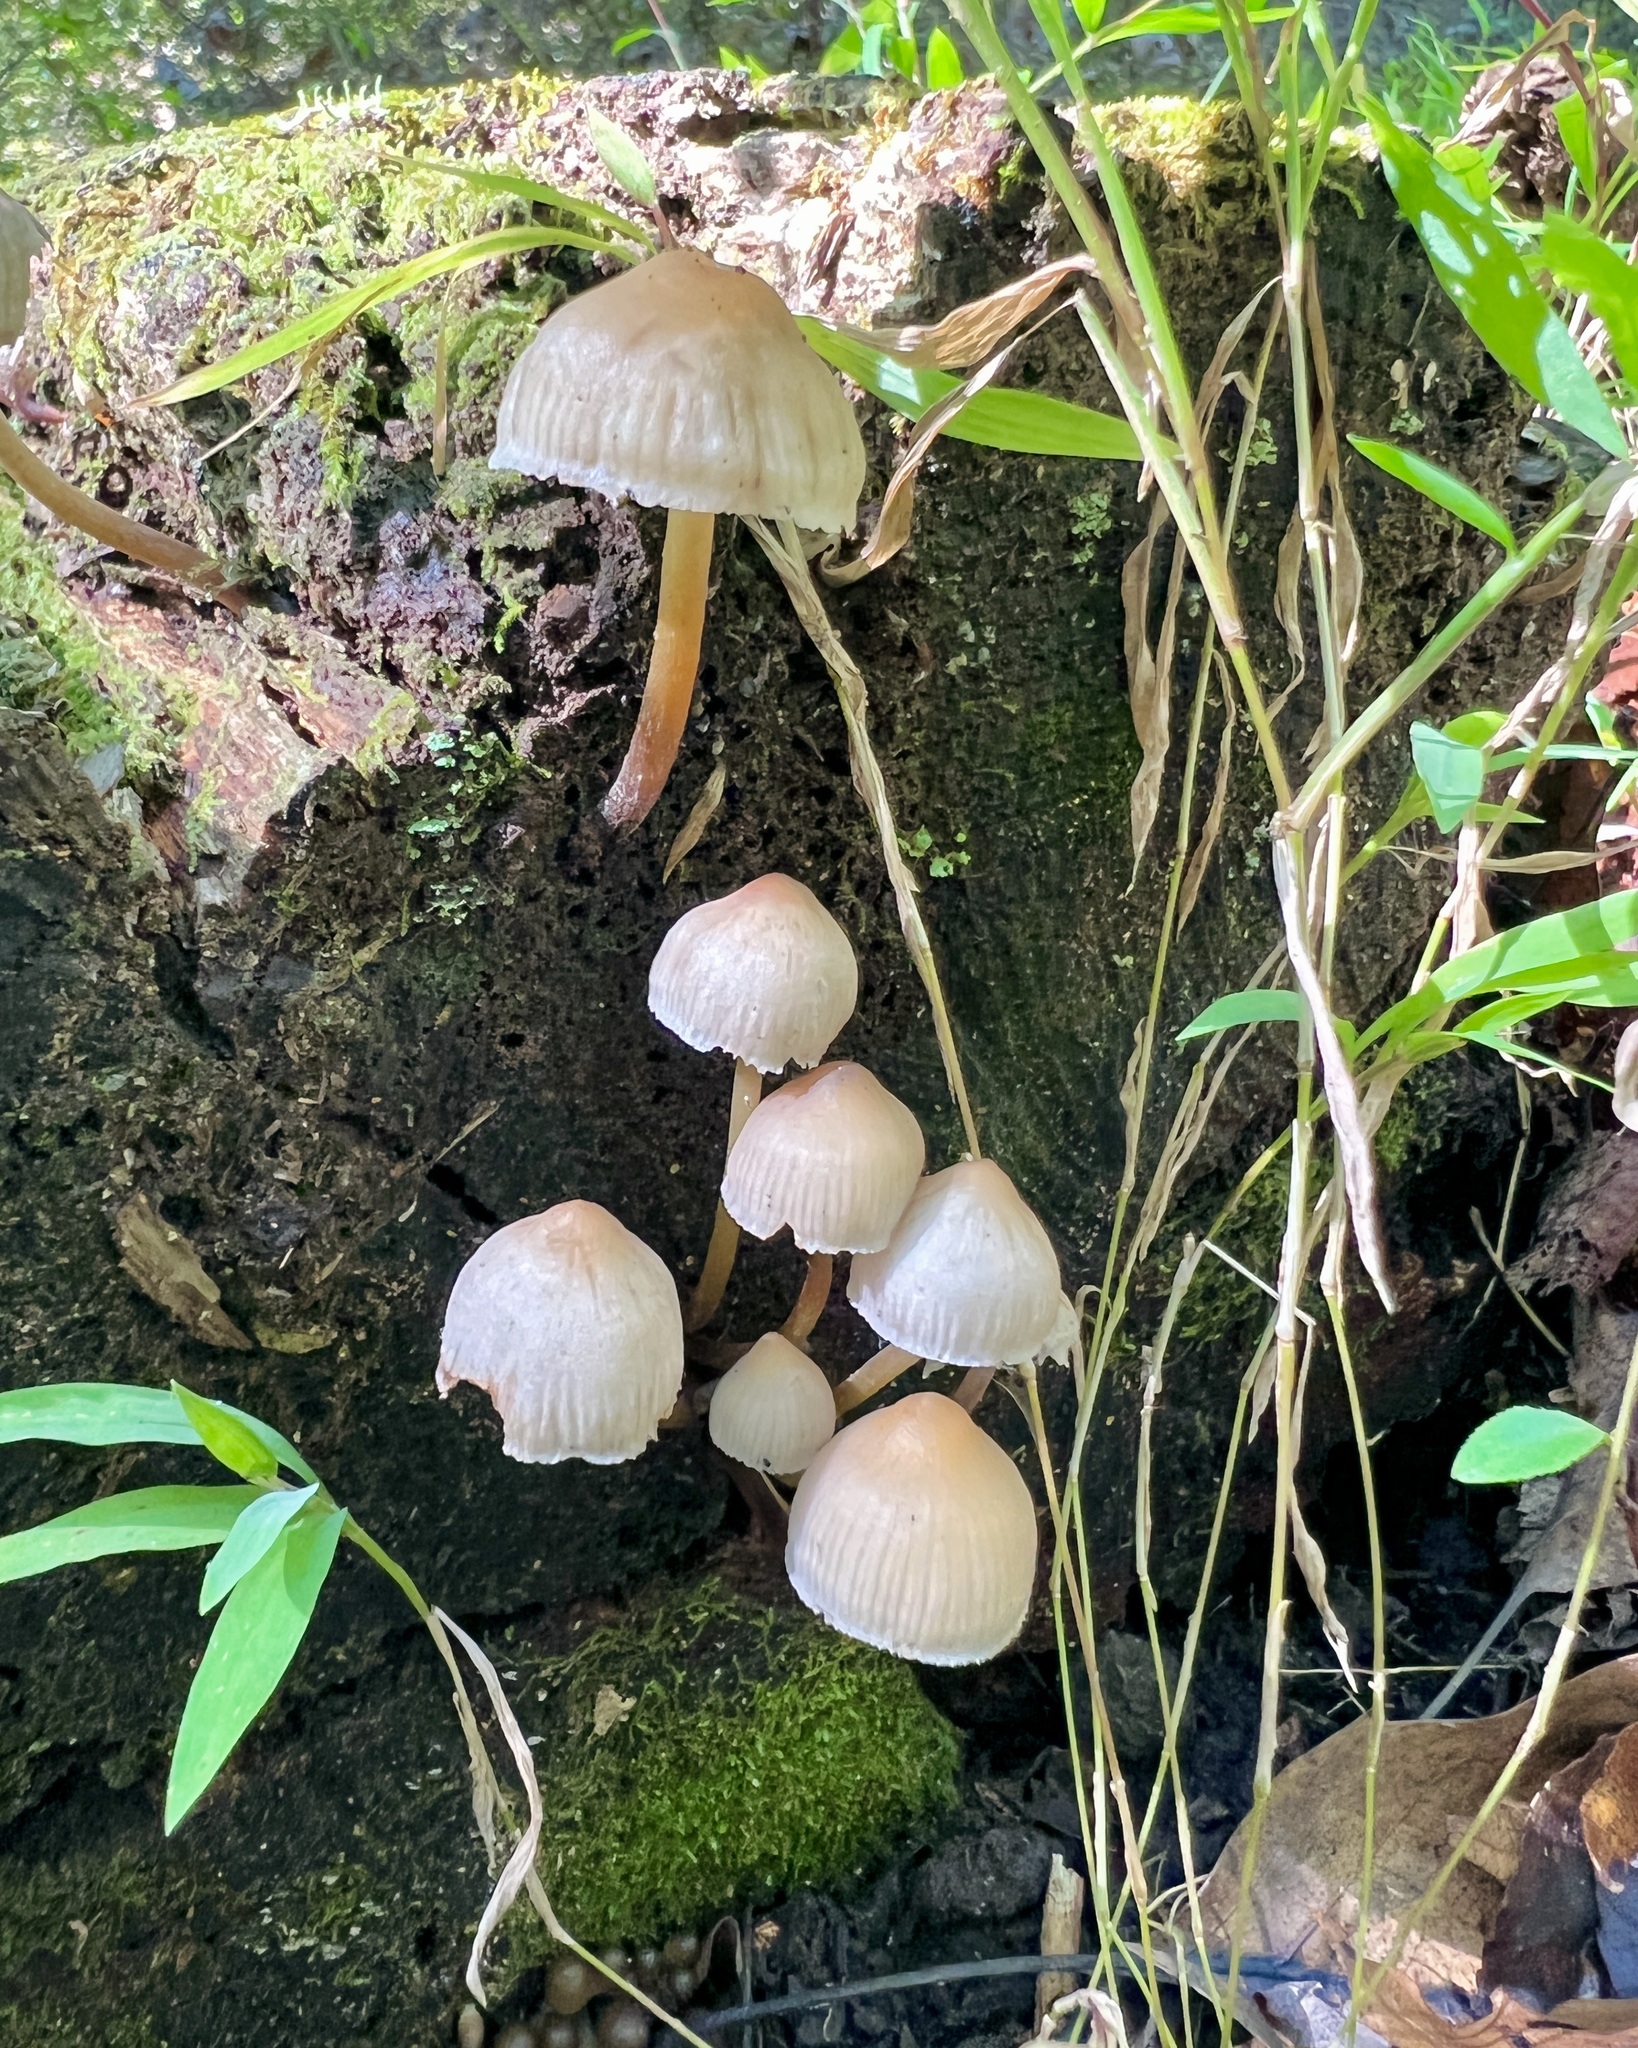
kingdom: Fungi
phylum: Basidiomycota
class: Agaricomycetes
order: Agaricales
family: Mycenaceae
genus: Mycena
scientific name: Mycena inclinata
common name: Clustered bonnet
